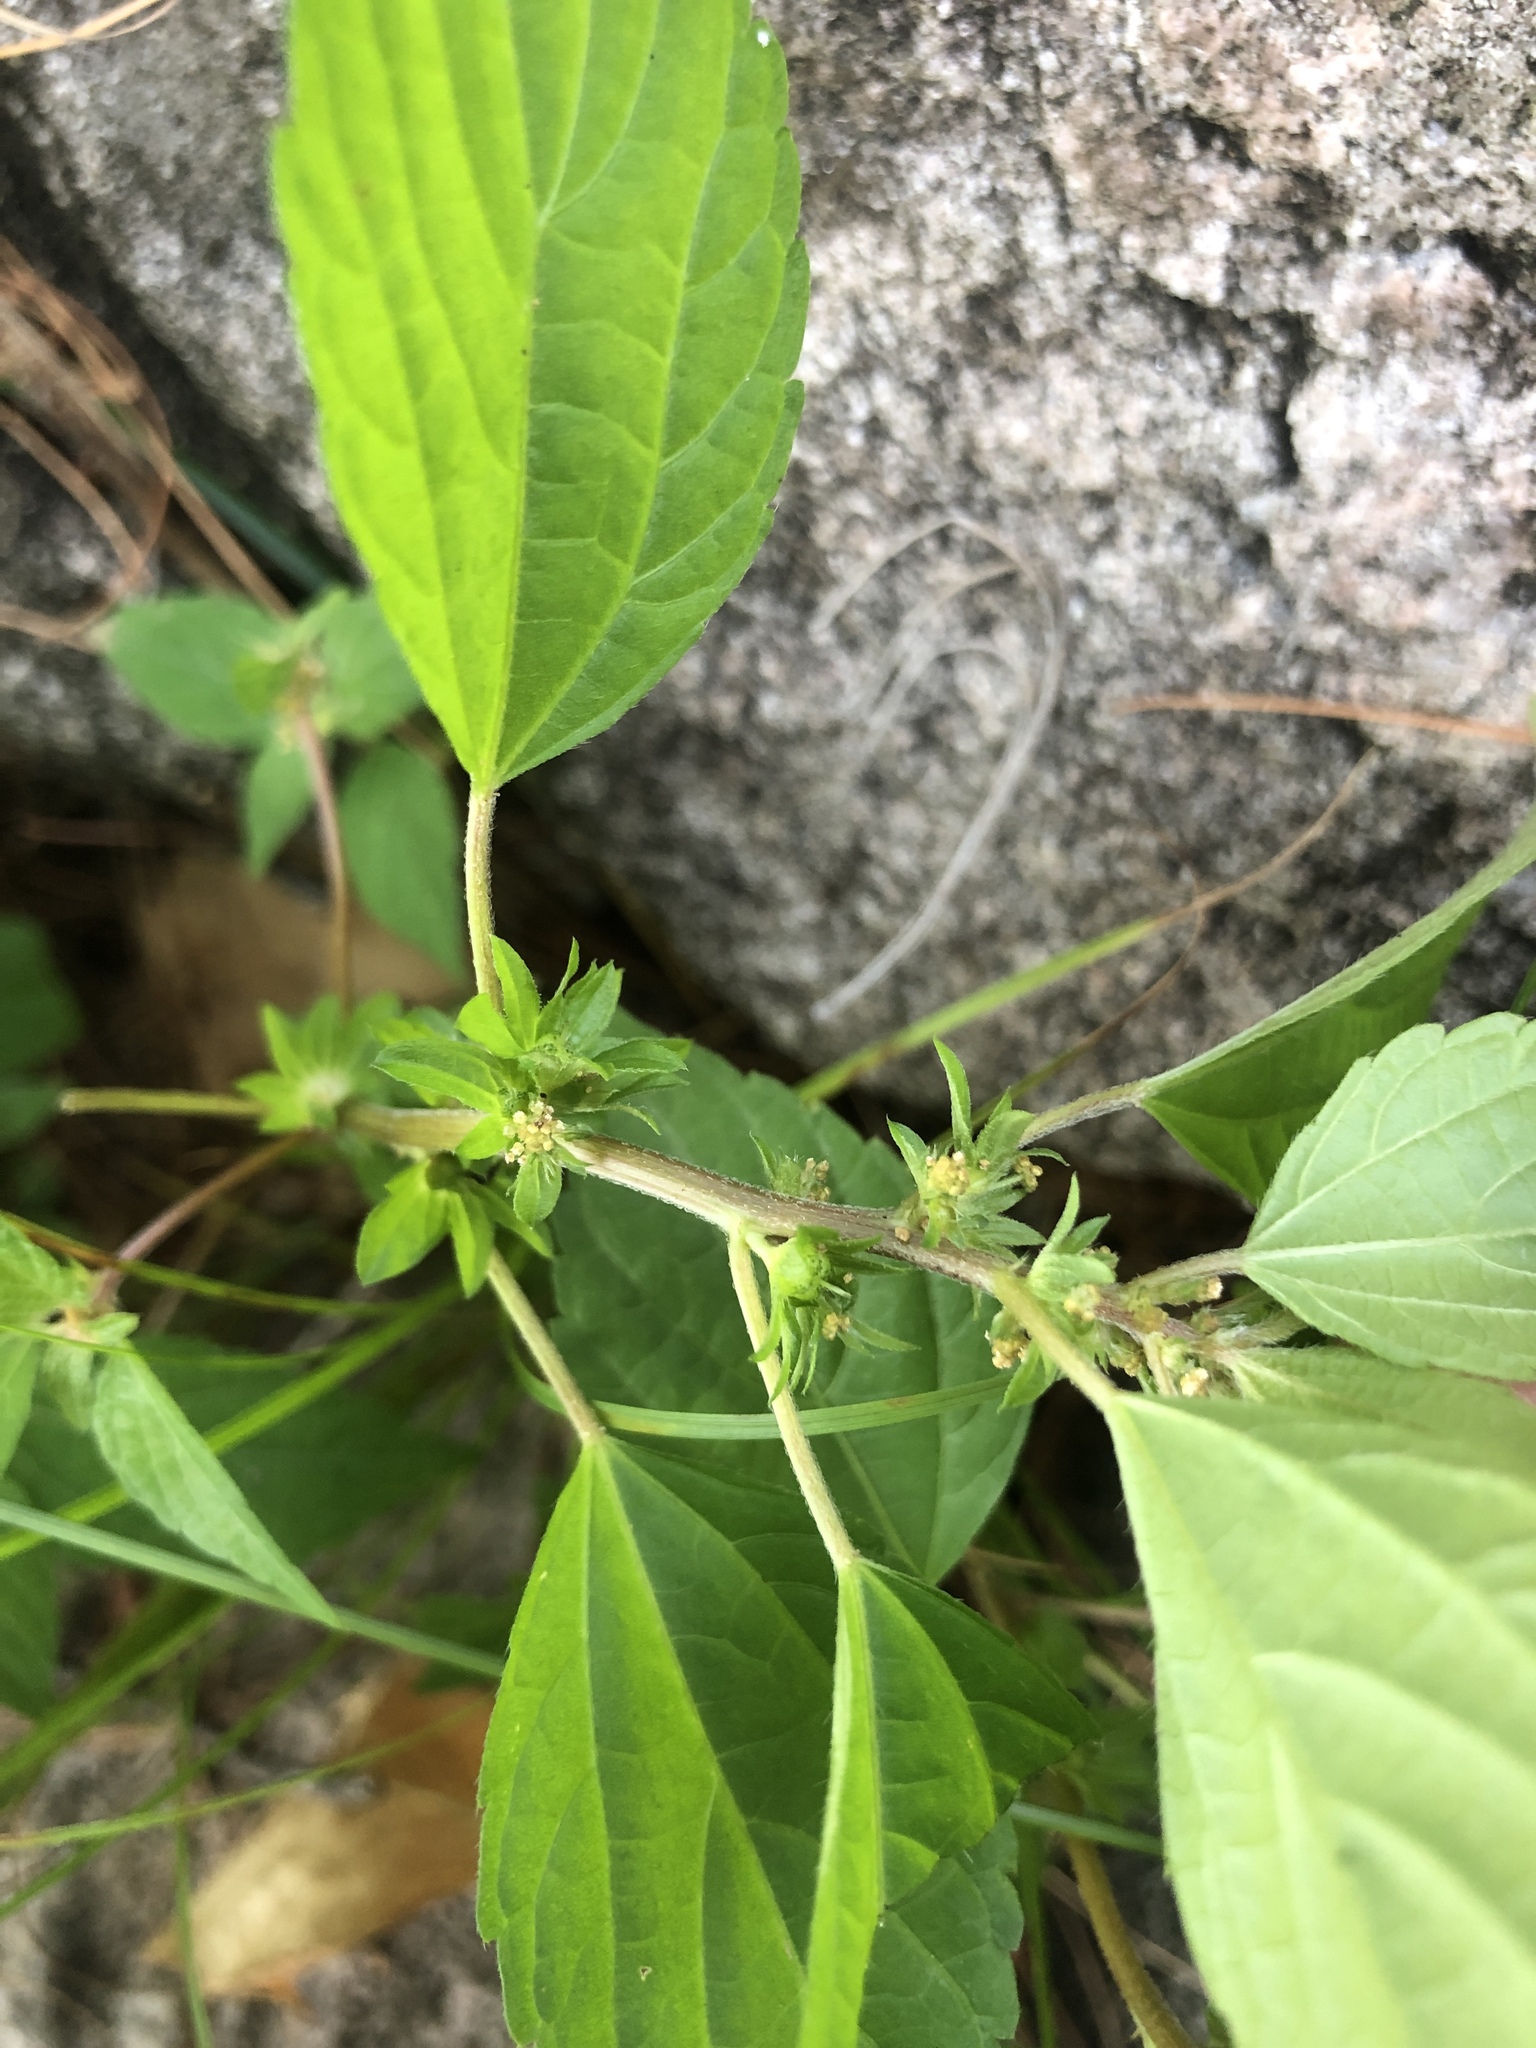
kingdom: Plantae
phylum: Tracheophyta
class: Magnoliopsida
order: Malpighiales
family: Euphorbiaceae
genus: Acalypha
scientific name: Acalypha rhomboidea
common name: Rhombic copperleaf
